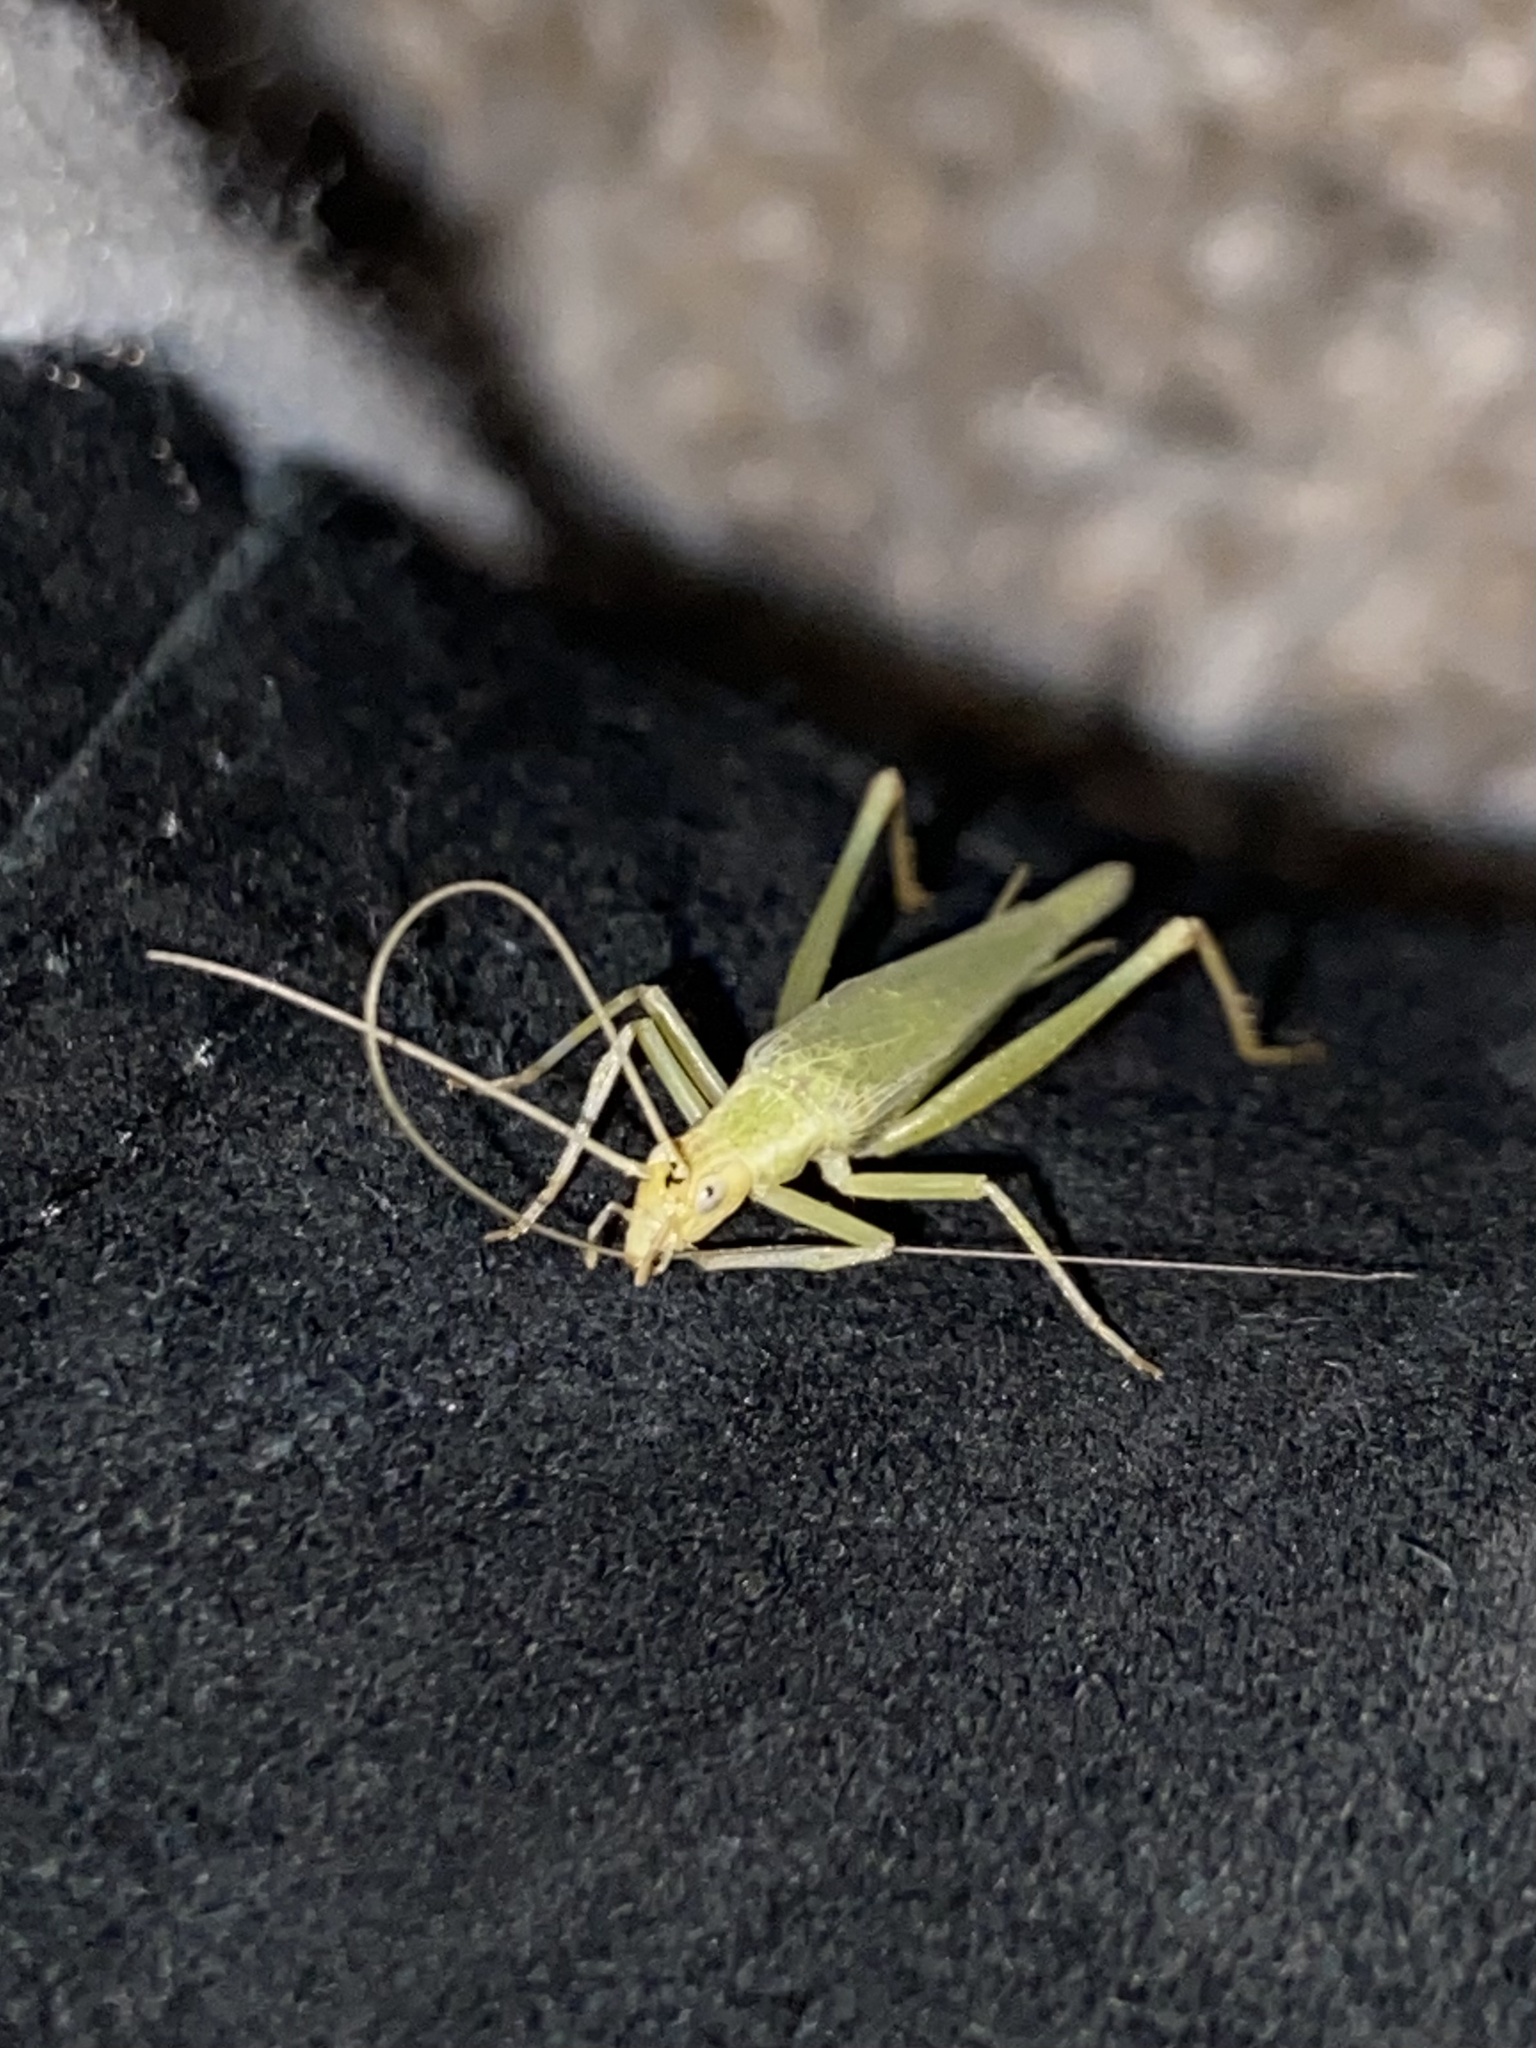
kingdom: Animalia
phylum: Arthropoda
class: Insecta
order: Orthoptera
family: Gryllidae
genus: Oecanthus
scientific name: Oecanthus argentinus
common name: Prairie tree cricket
